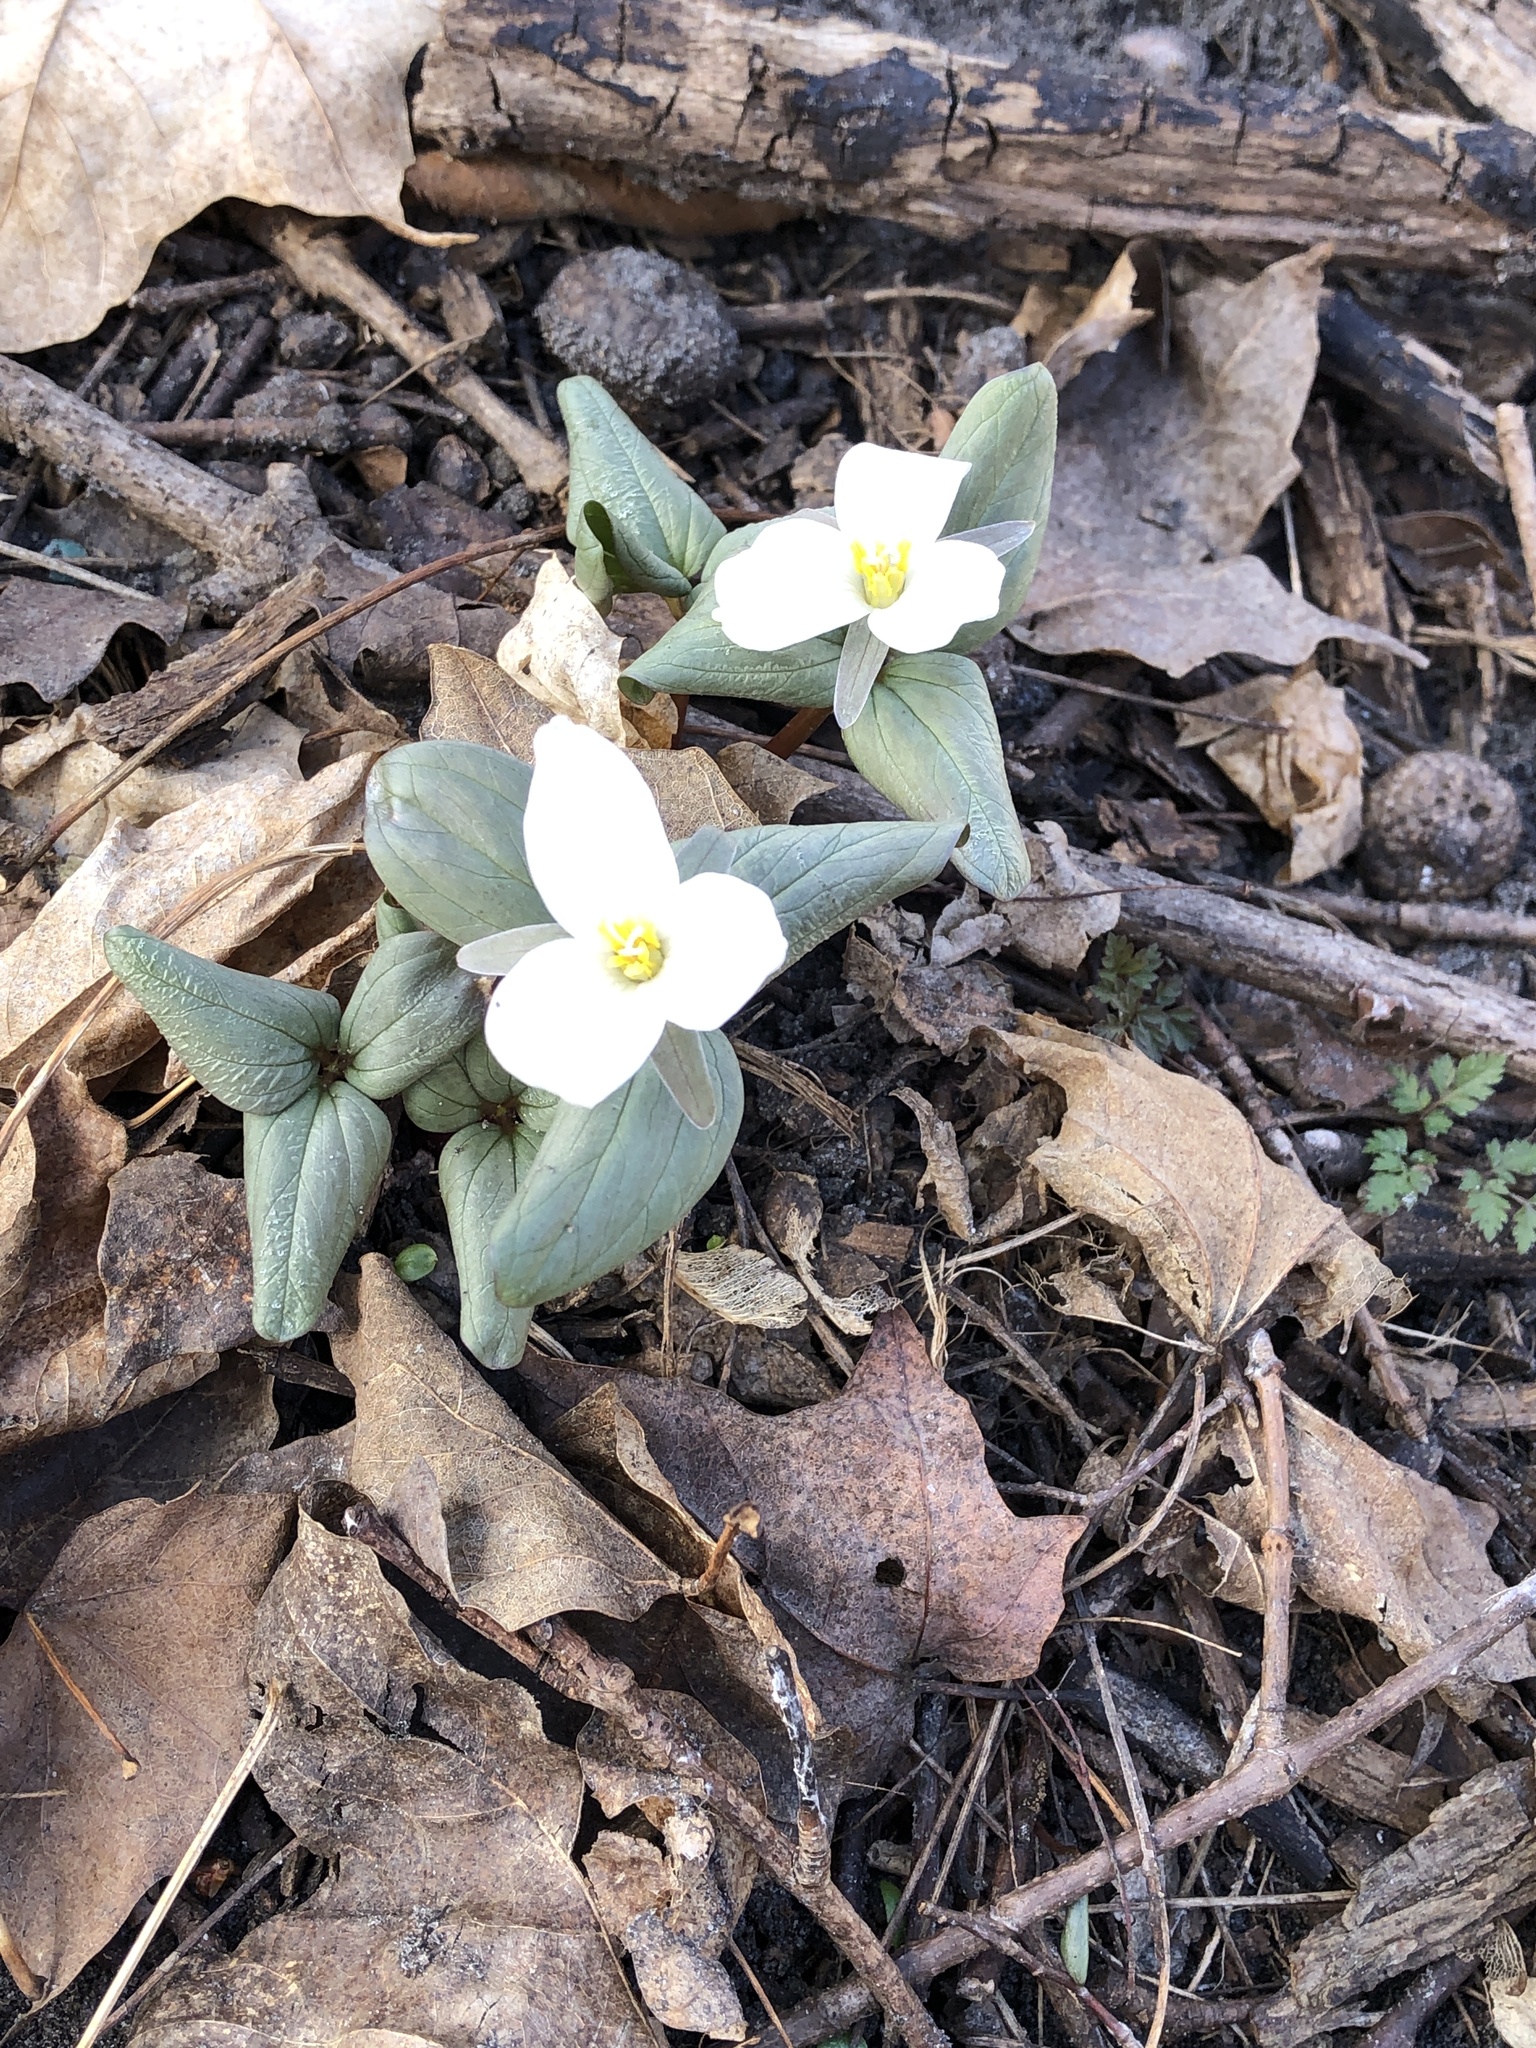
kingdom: Plantae
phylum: Tracheophyta
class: Liliopsida
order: Liliales
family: Melanthiaceae
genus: Trillium
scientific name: Trillium nivale
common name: Dwarf white trillium
